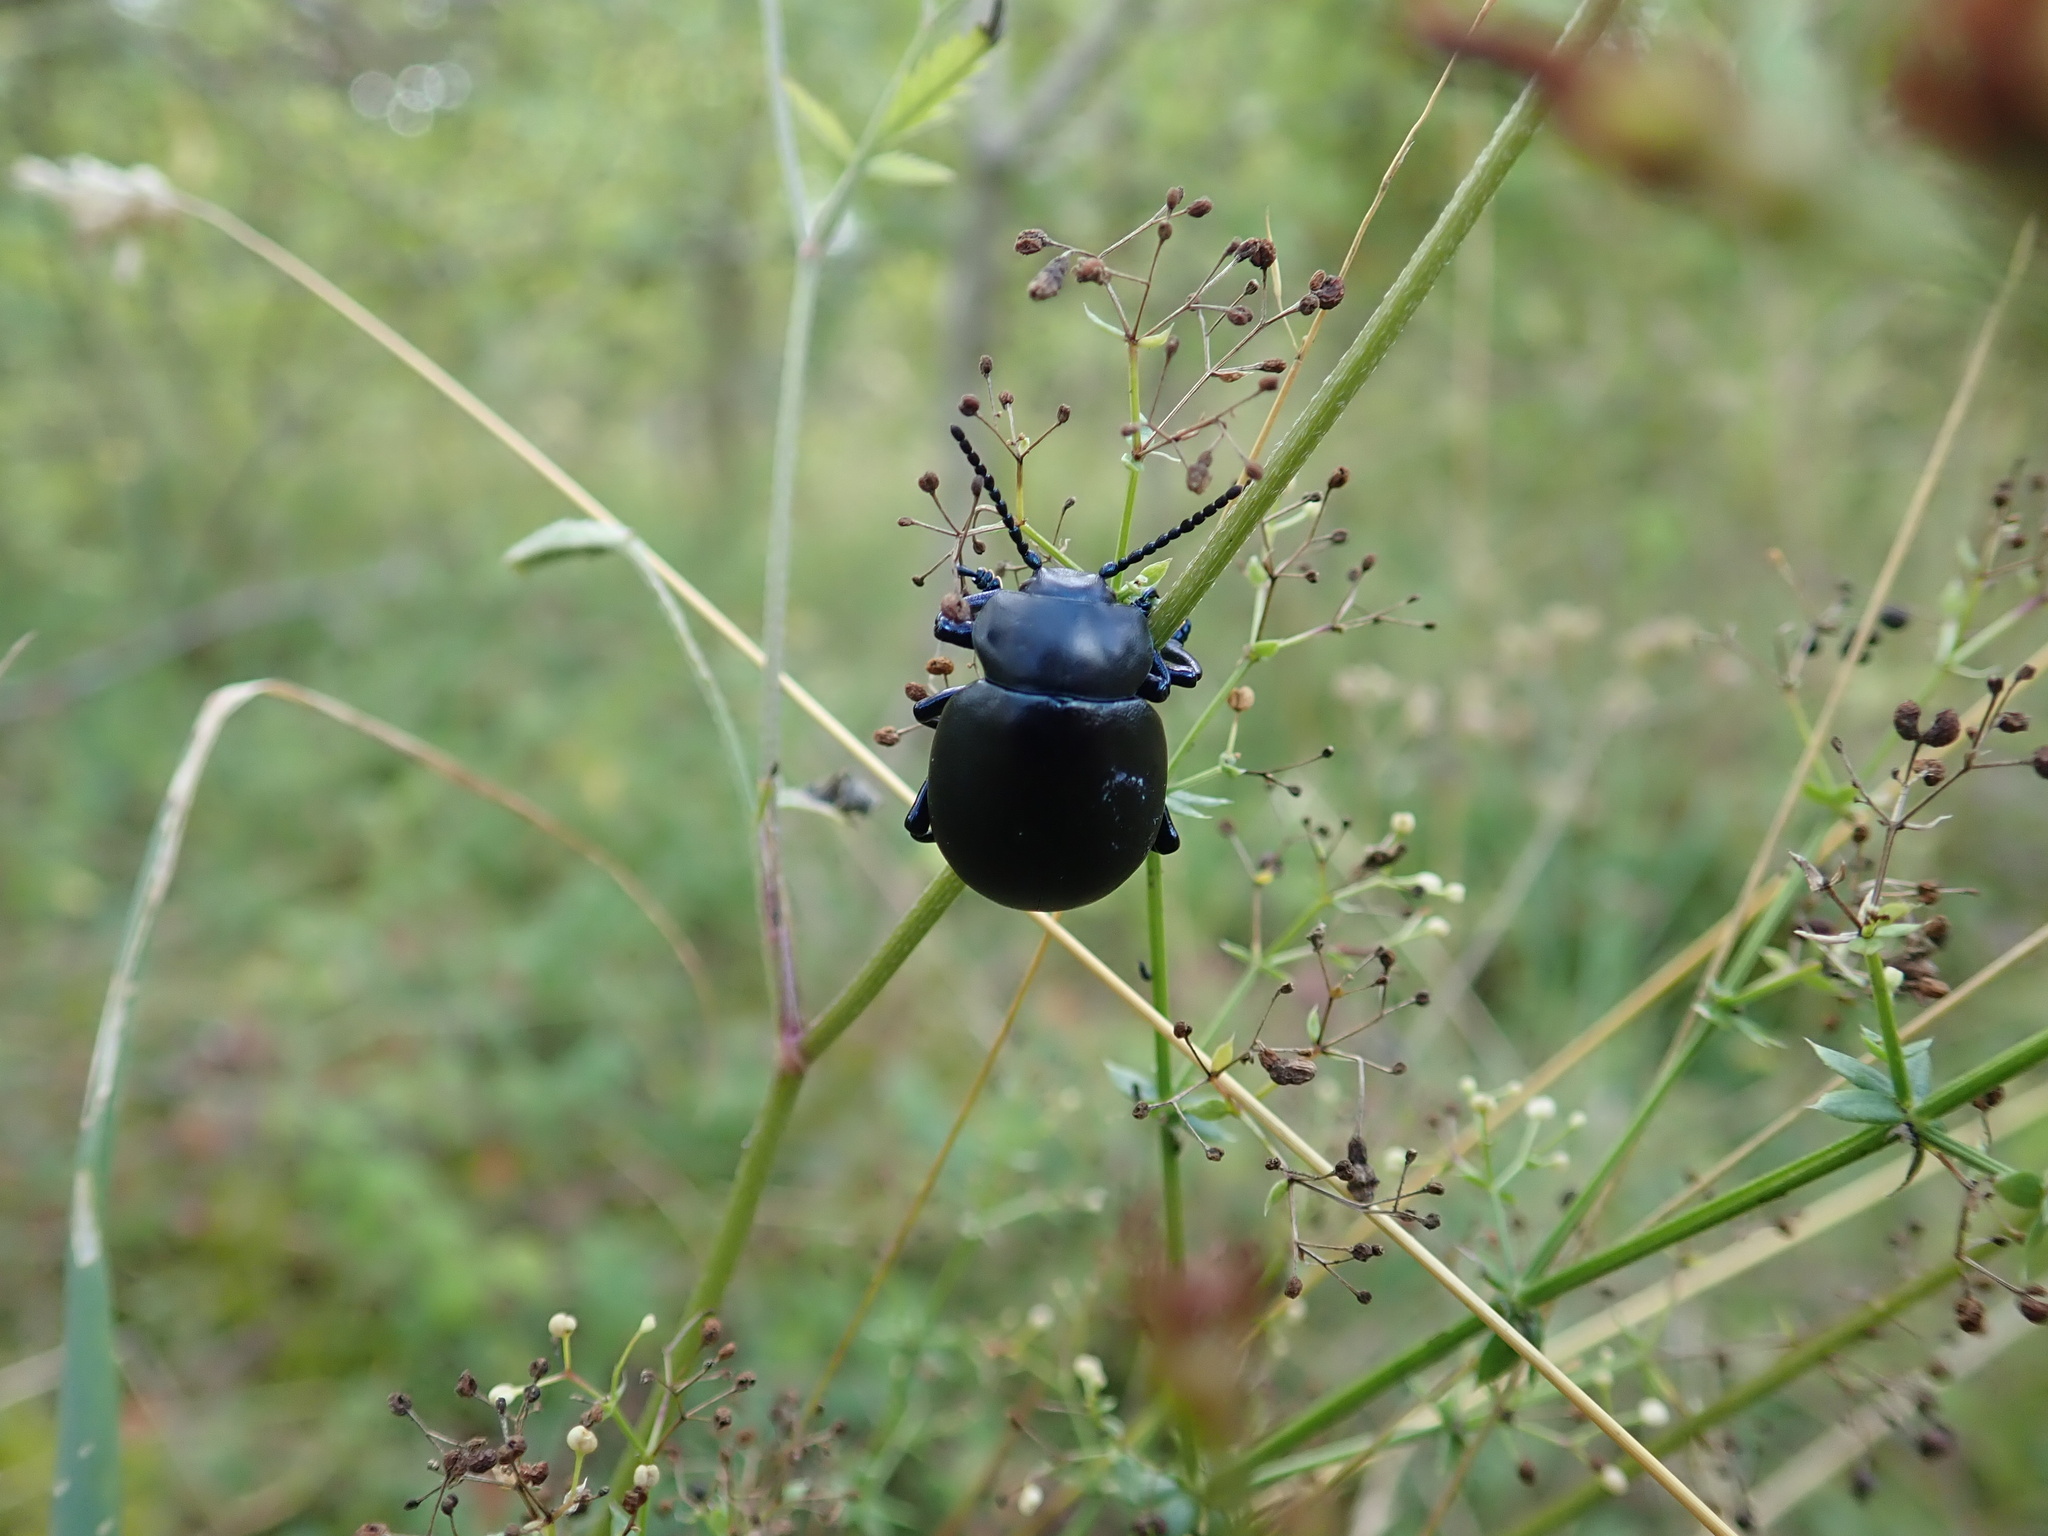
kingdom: Animalia
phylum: Arthropoda
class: Insecta
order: Coleoptera
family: Chrysomelidae
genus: Timarcha
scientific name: Timarcha tenebricosa
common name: Bloody-nosed beetle
